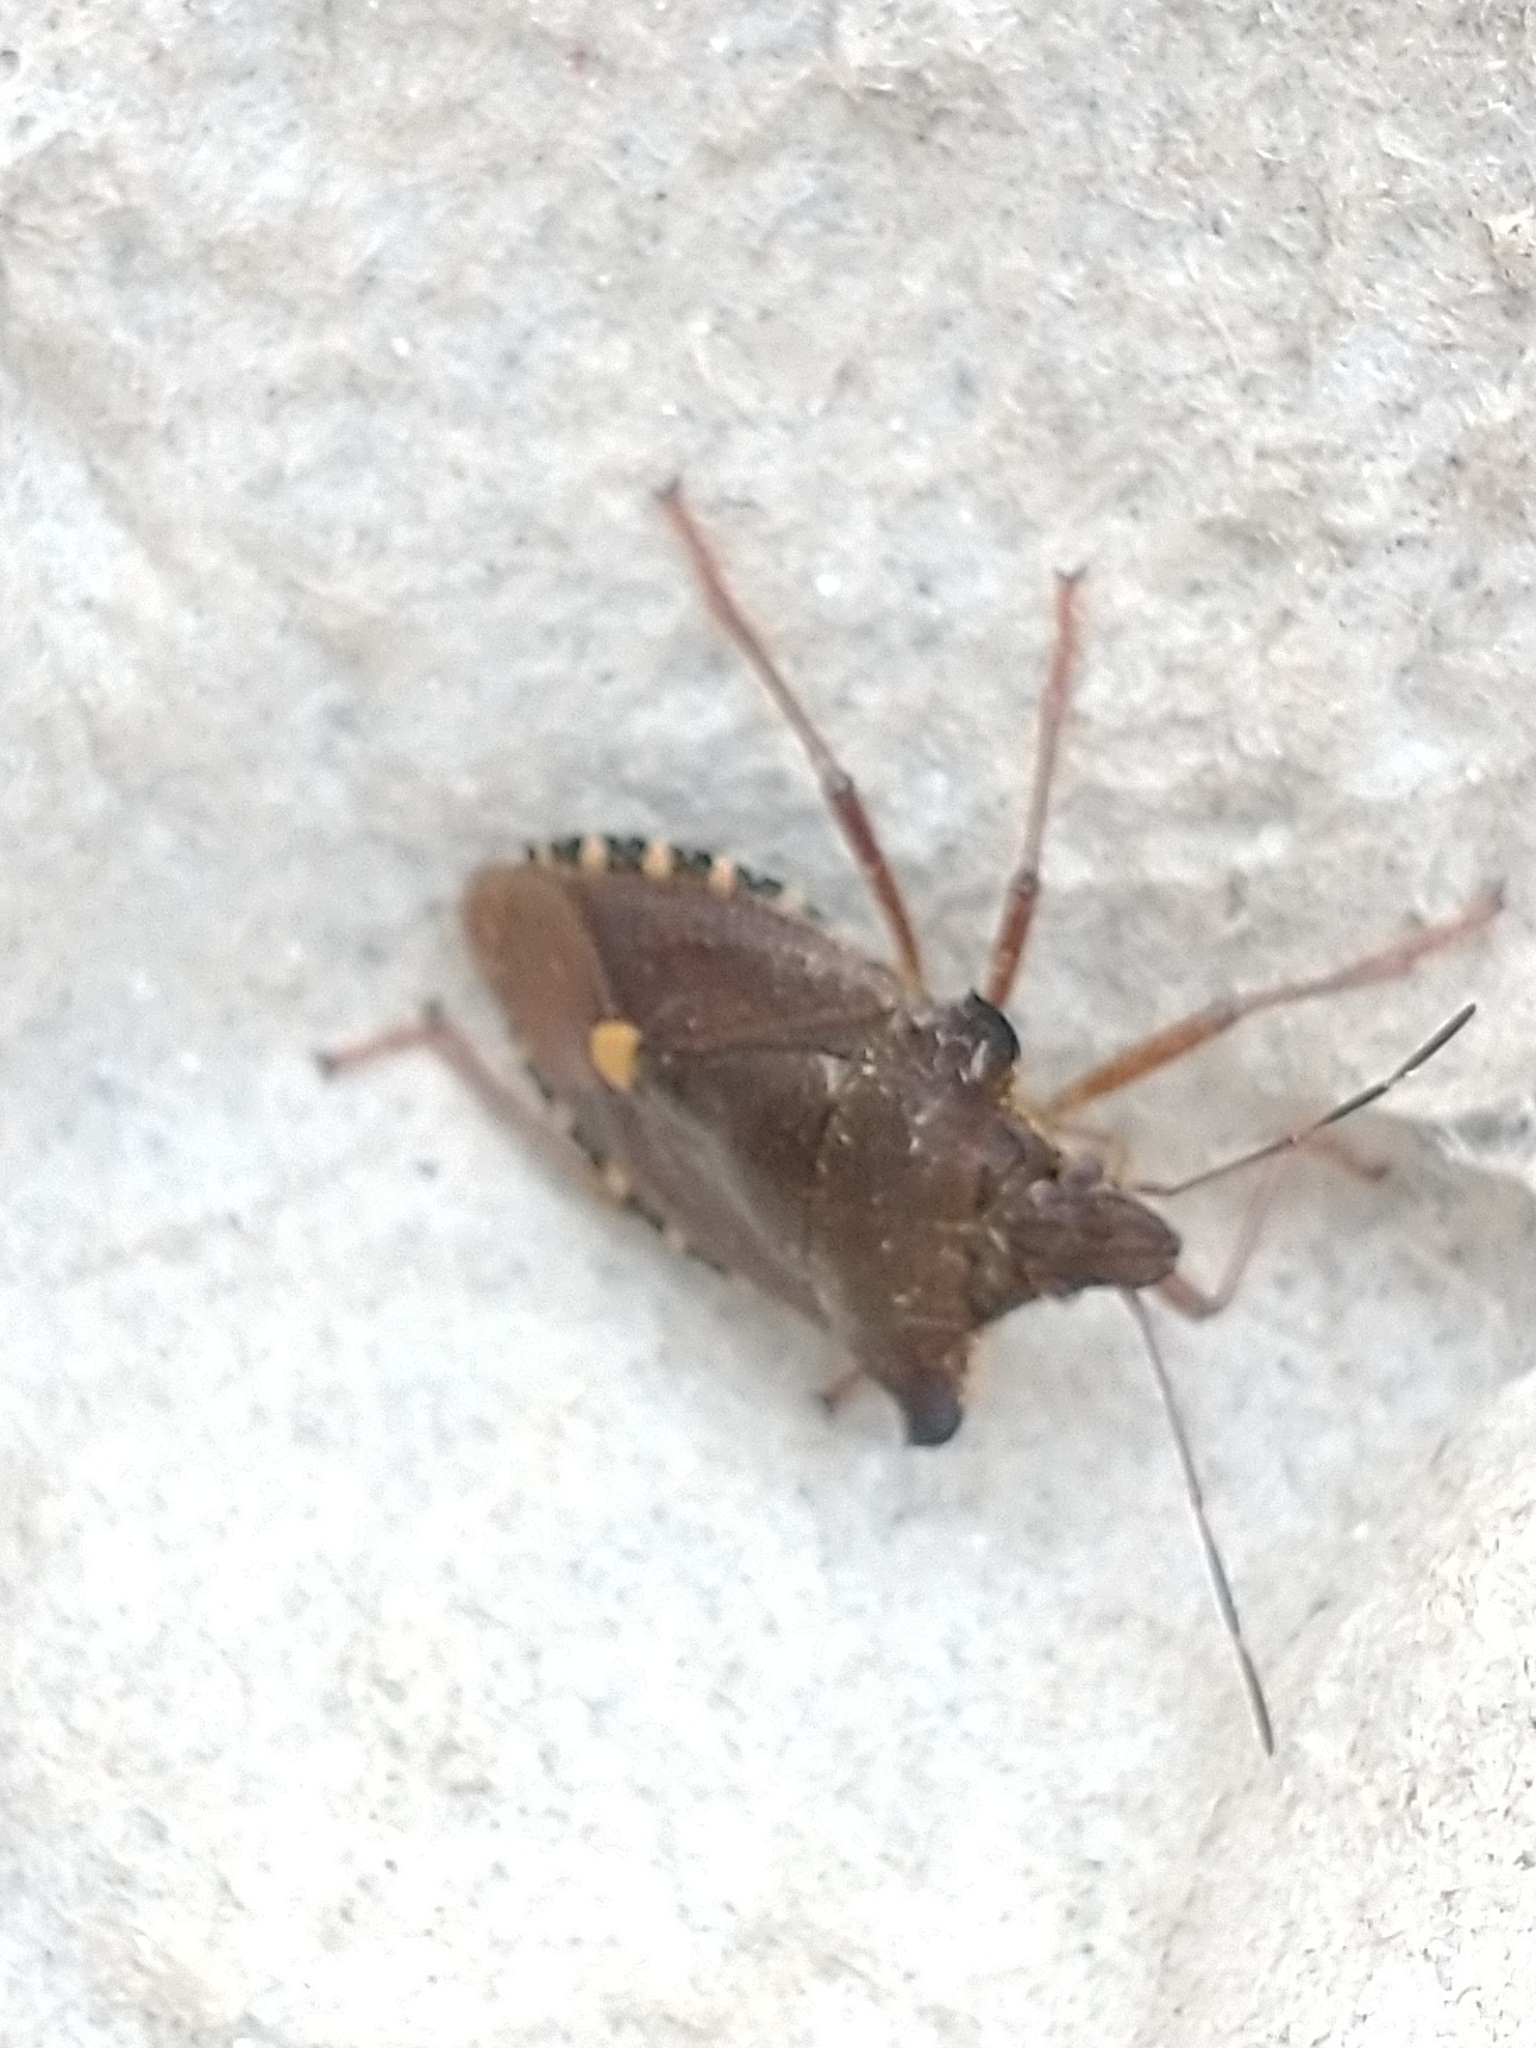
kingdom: Animalia
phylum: Arthropoda
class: Insecta
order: Hemiptera
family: Pentatomidae
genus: Pentatoma
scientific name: Pentatoma rufipes
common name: Forest bug
